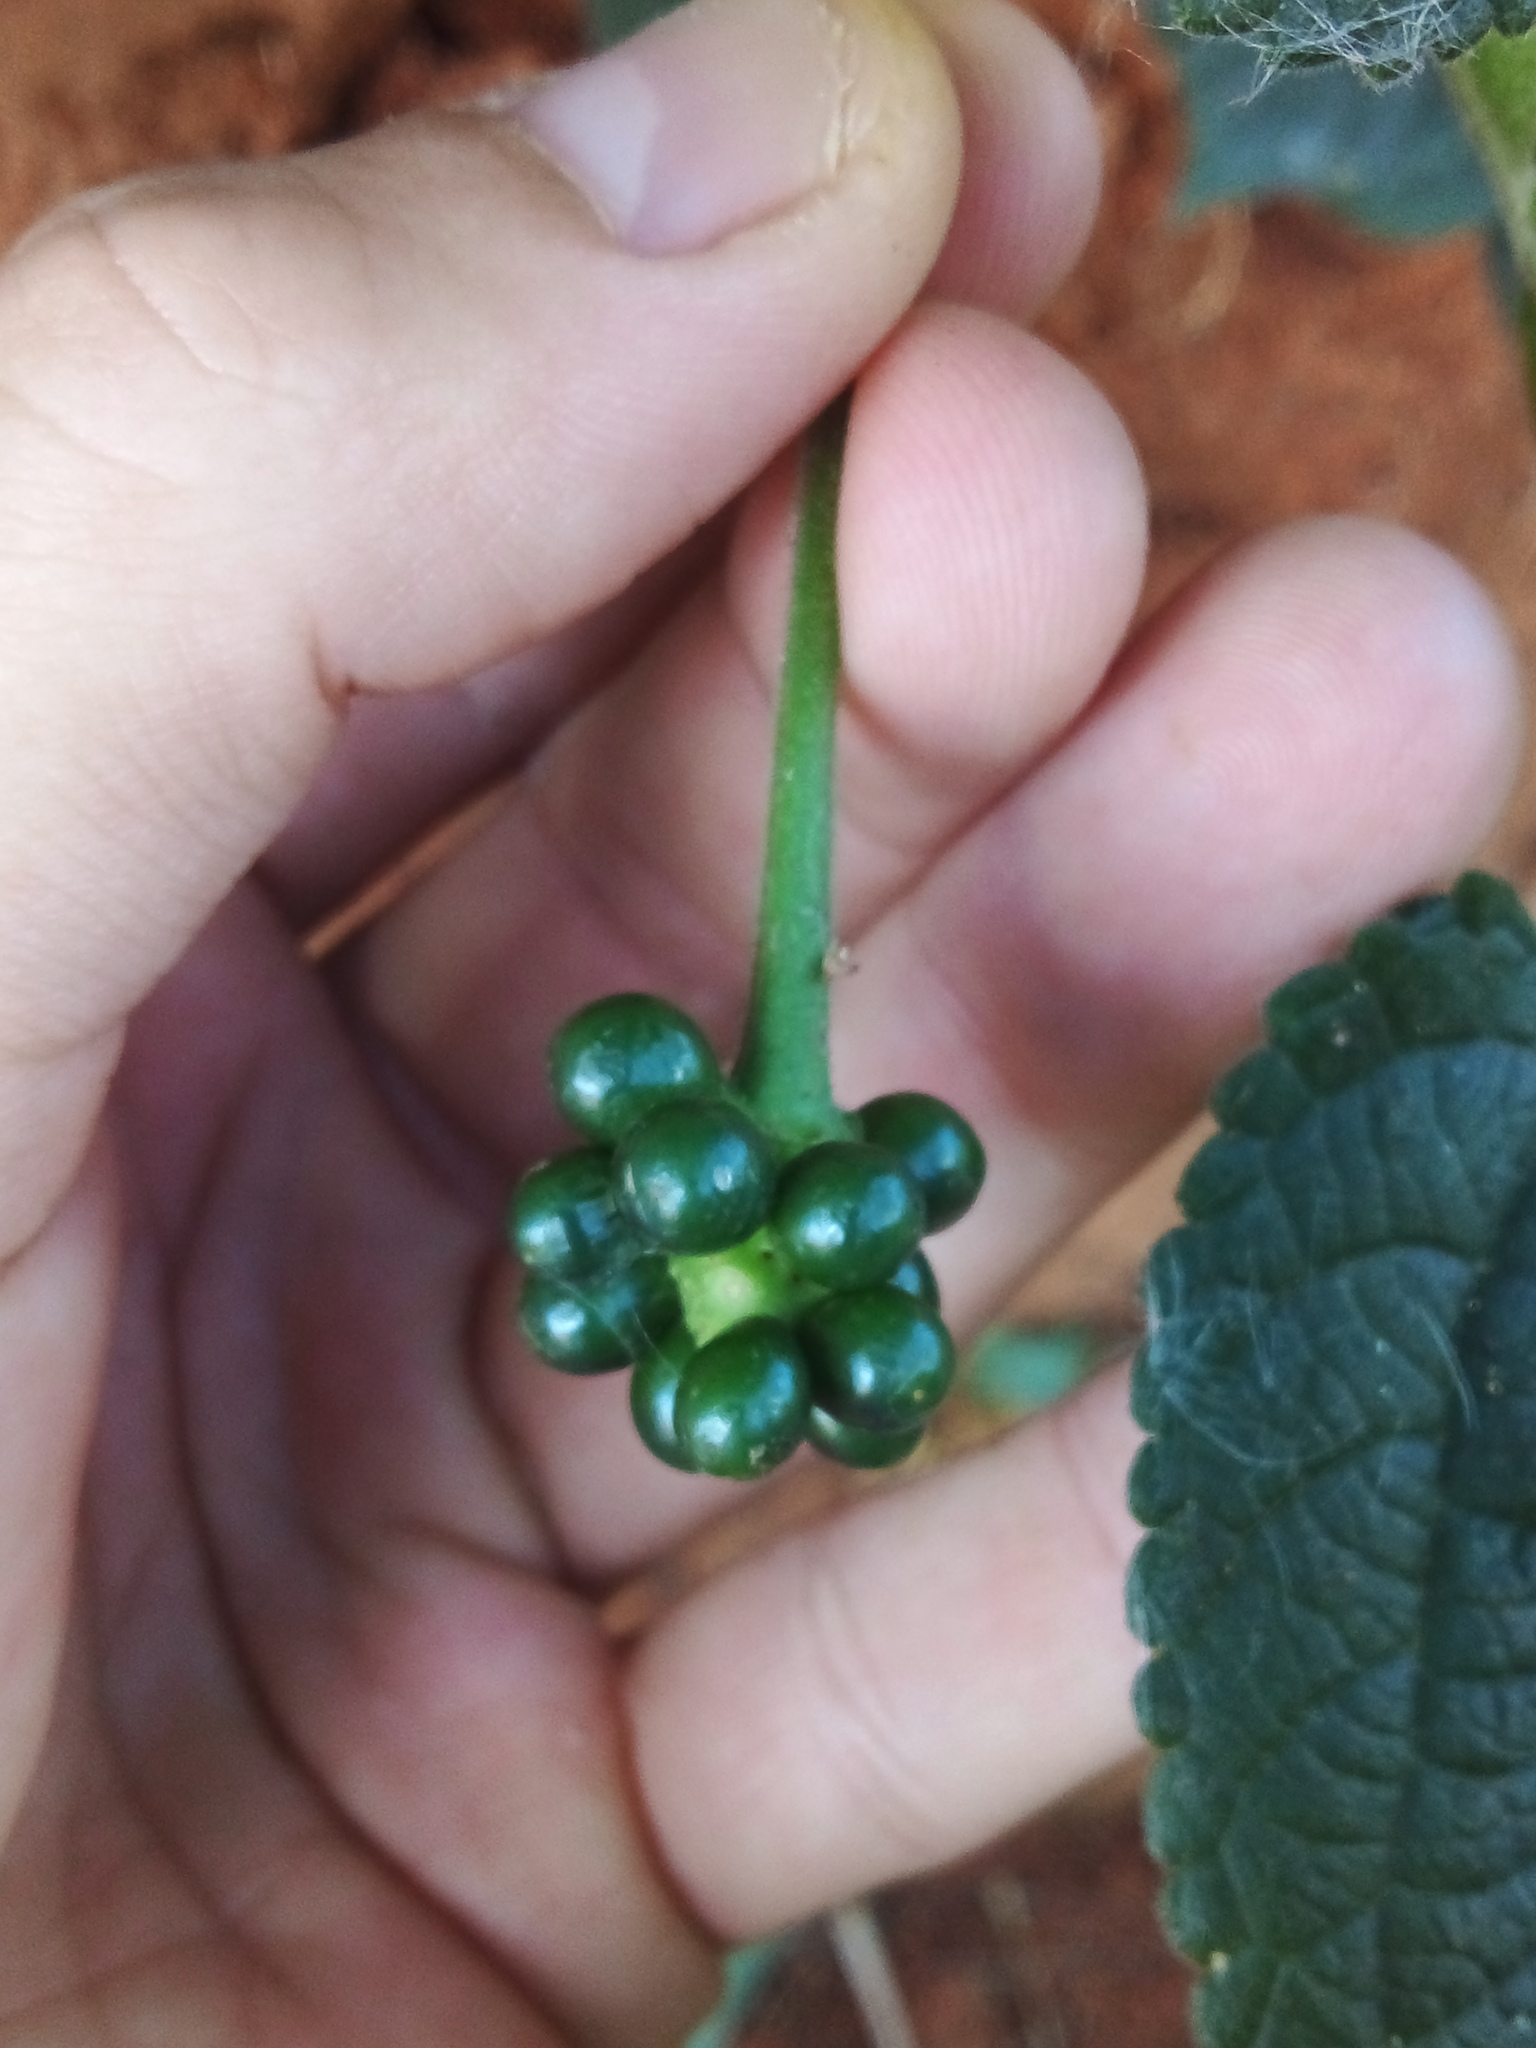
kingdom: Plantae
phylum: Tracheophyta
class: Magnoliopsida
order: Lamiales
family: Verbenaceae
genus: Lantana
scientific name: Lantana camara
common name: Lantana
